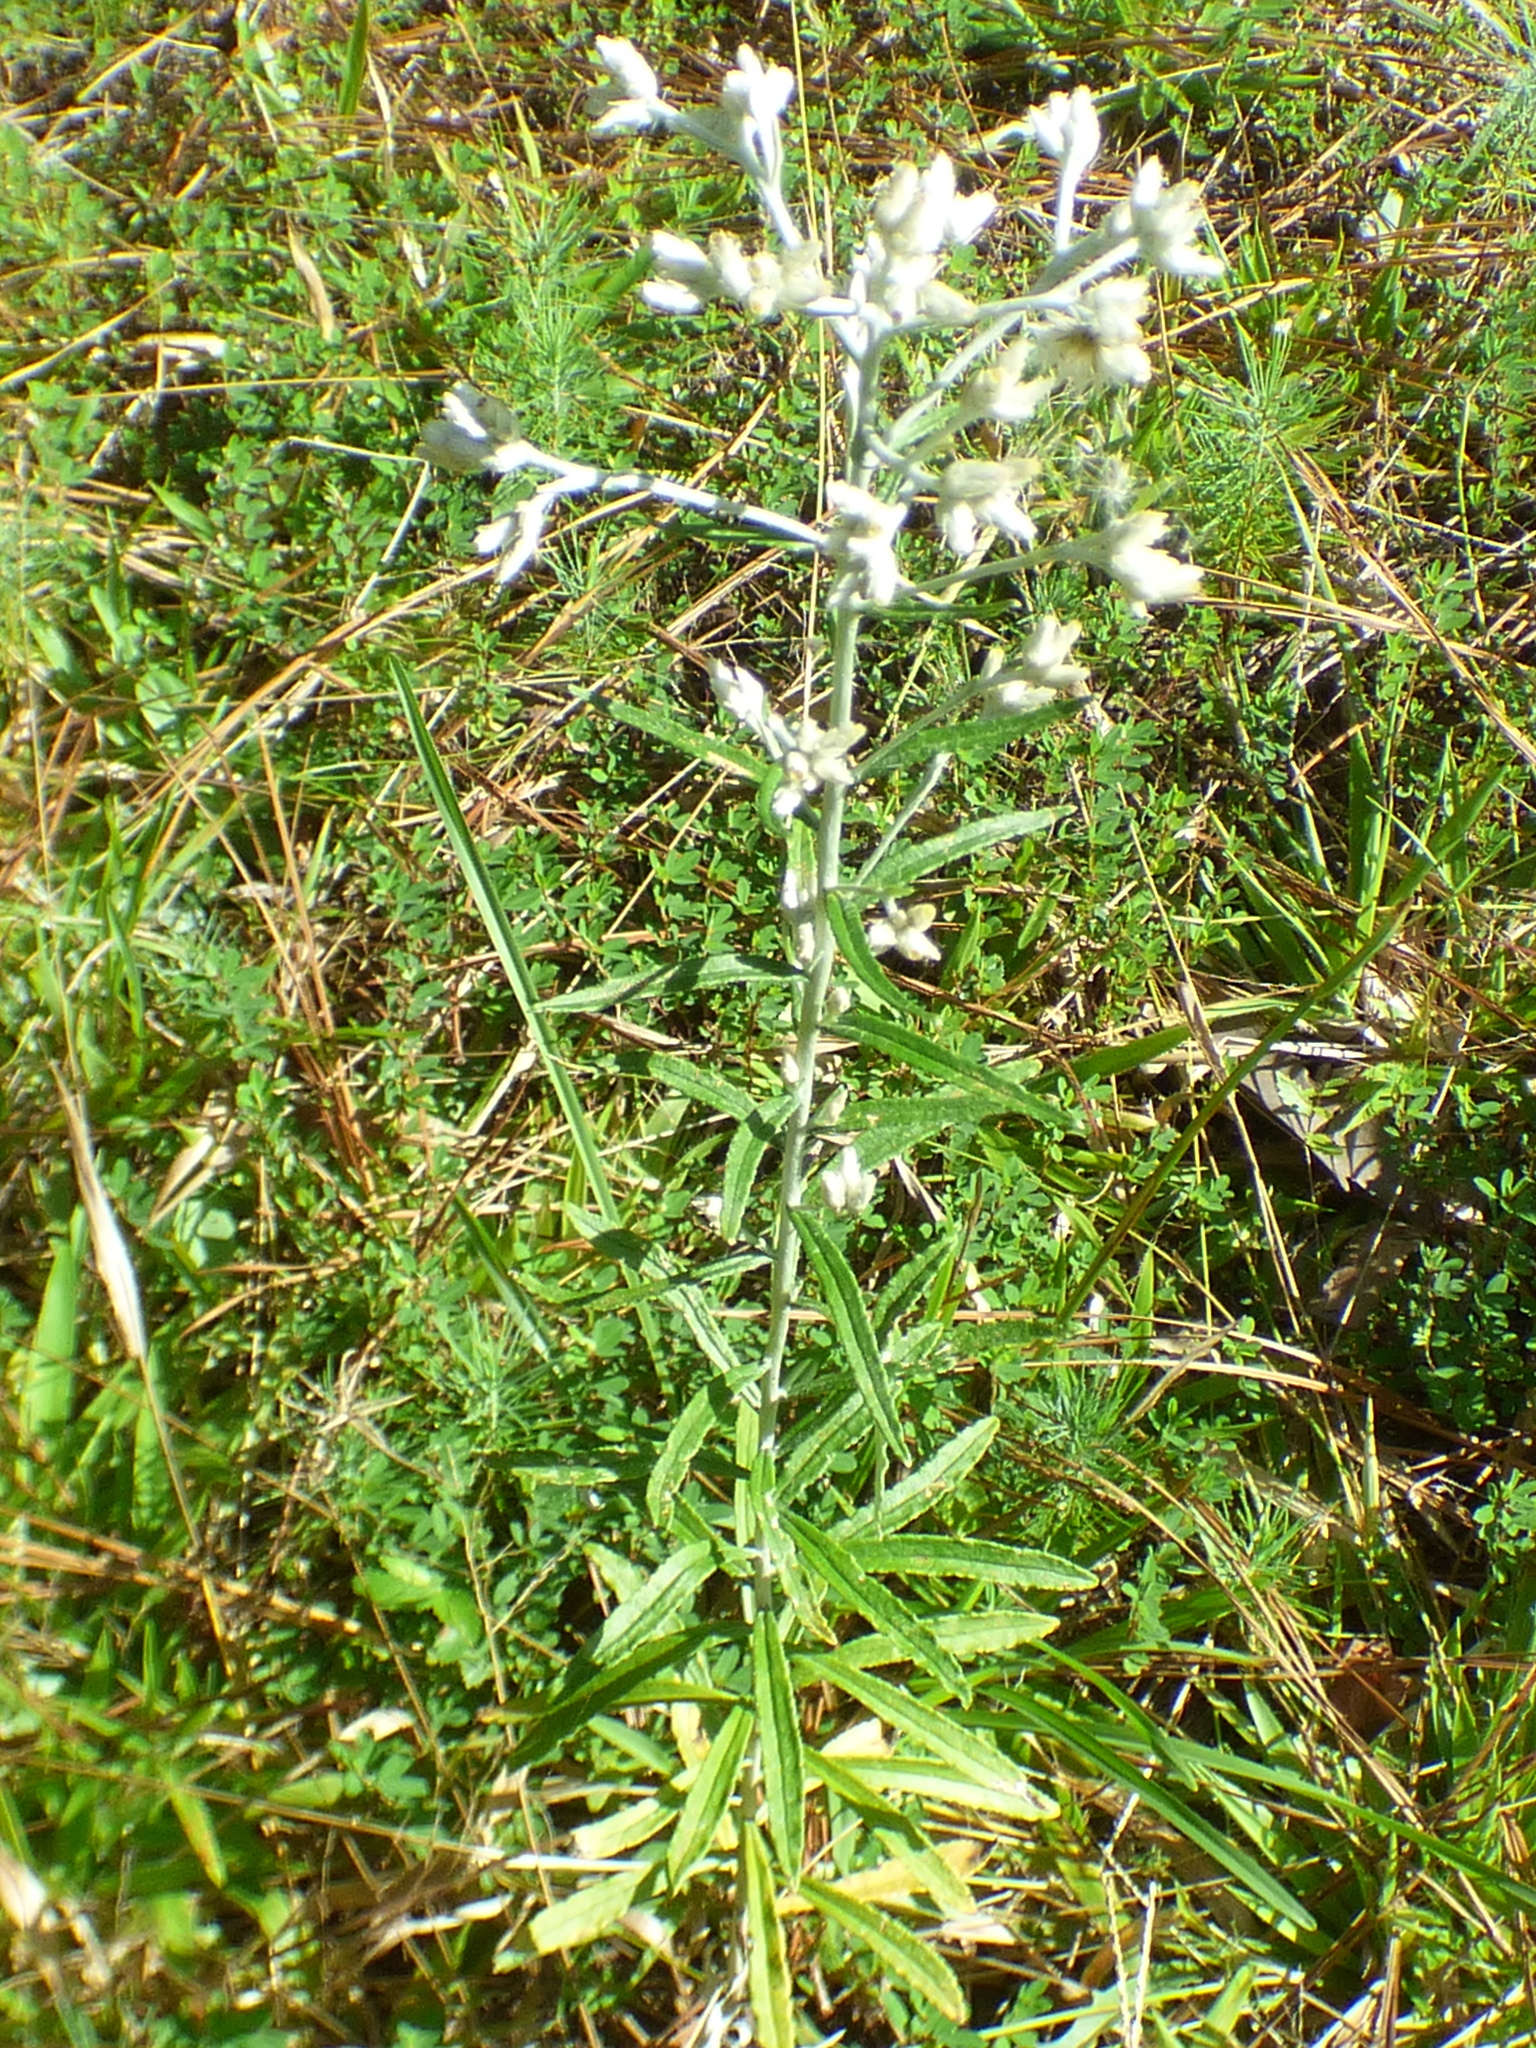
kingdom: Plantae
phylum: Tracheophyta
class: Magnoliopsida
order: Asterales
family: Asteraceae
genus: Pseudognaphalium
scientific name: Pseudognaphalium obtusifolium
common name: Eastern rabbit-tobacco
